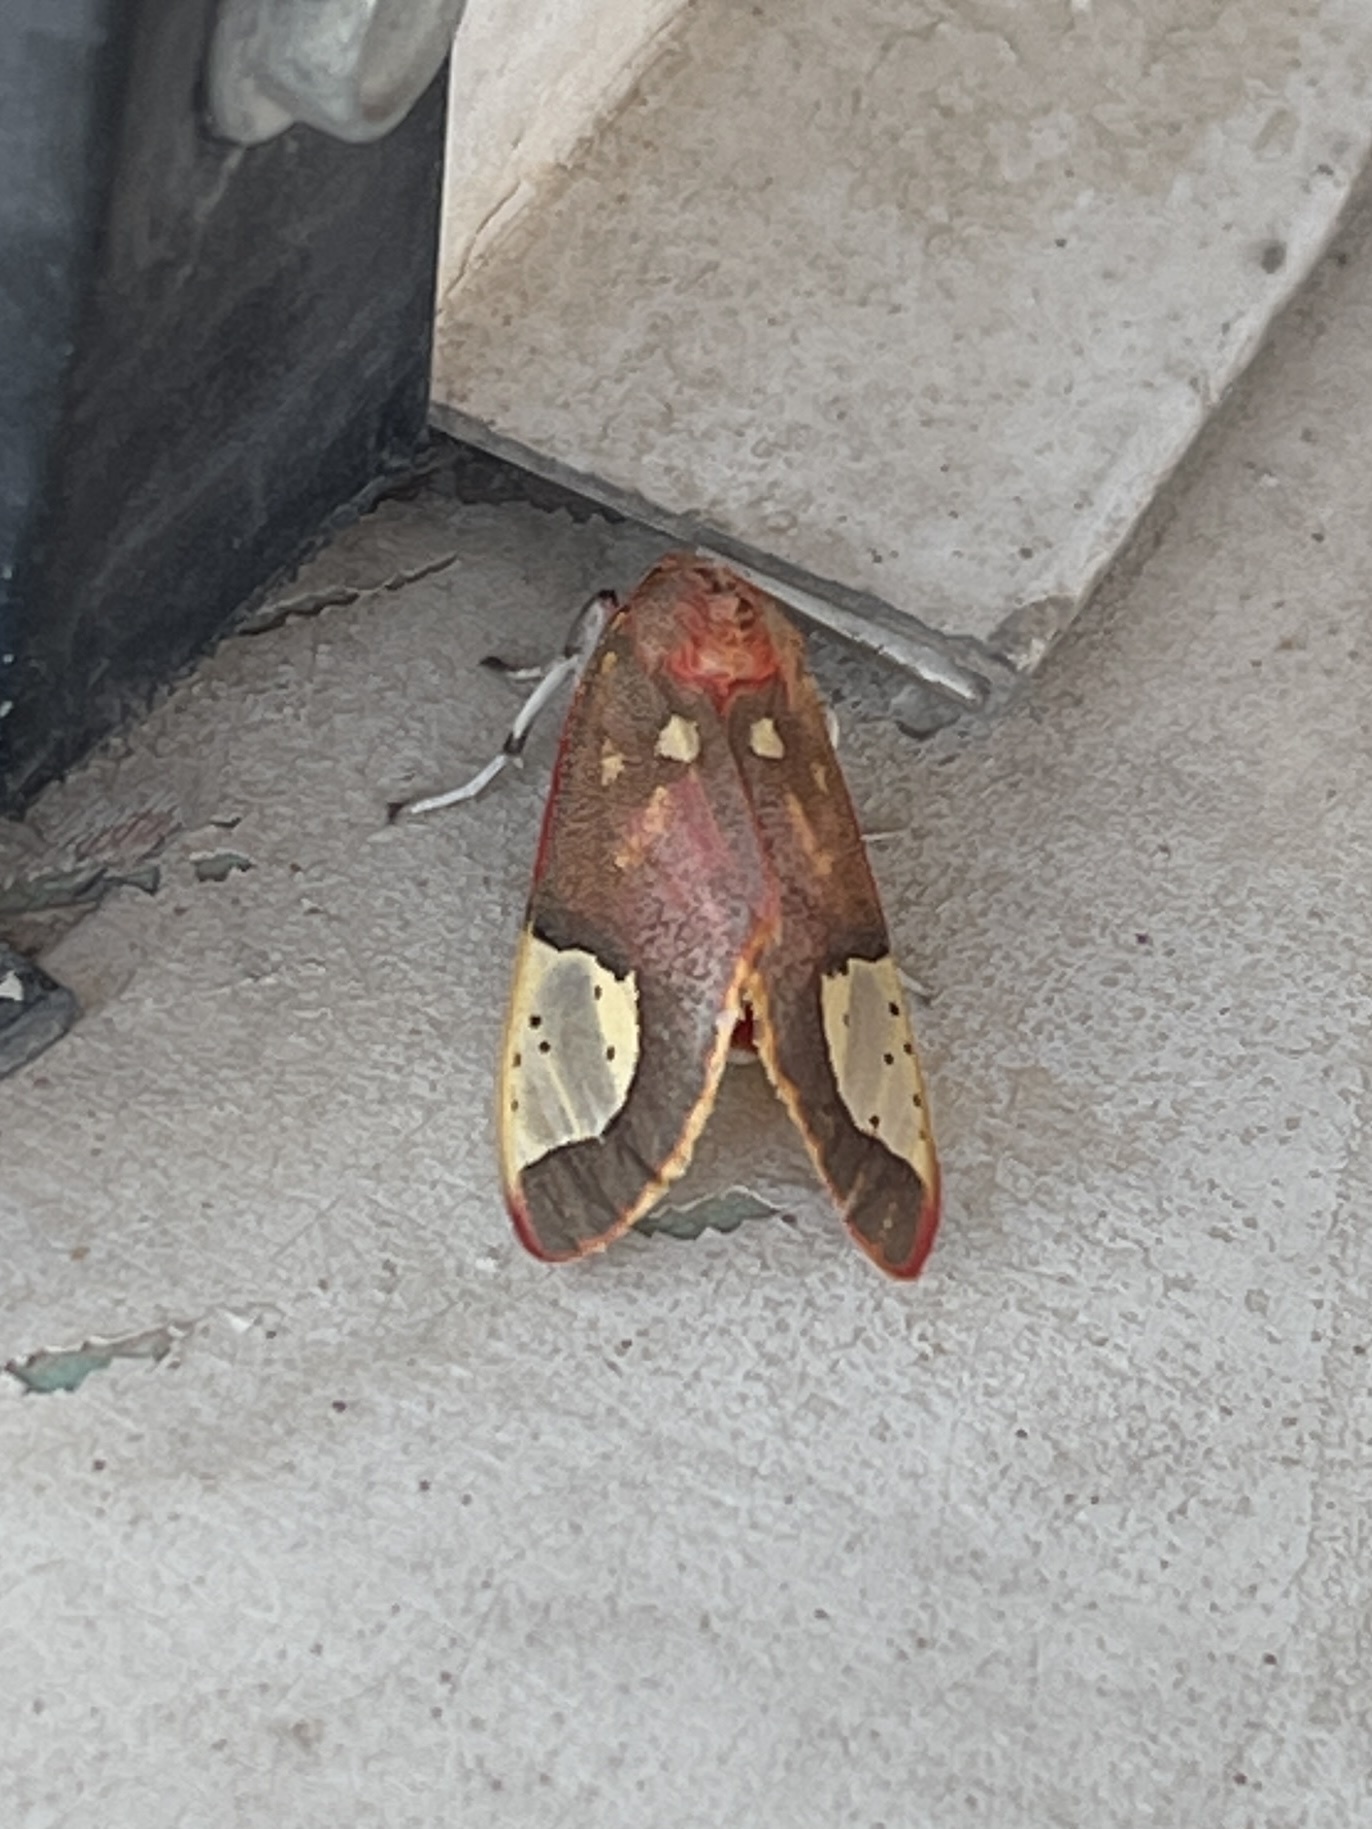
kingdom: Animalia
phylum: Arthropoda
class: Insecta
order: Lepidoptera
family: Erebidae
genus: Bertholdia
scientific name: Bertholdia trigona
